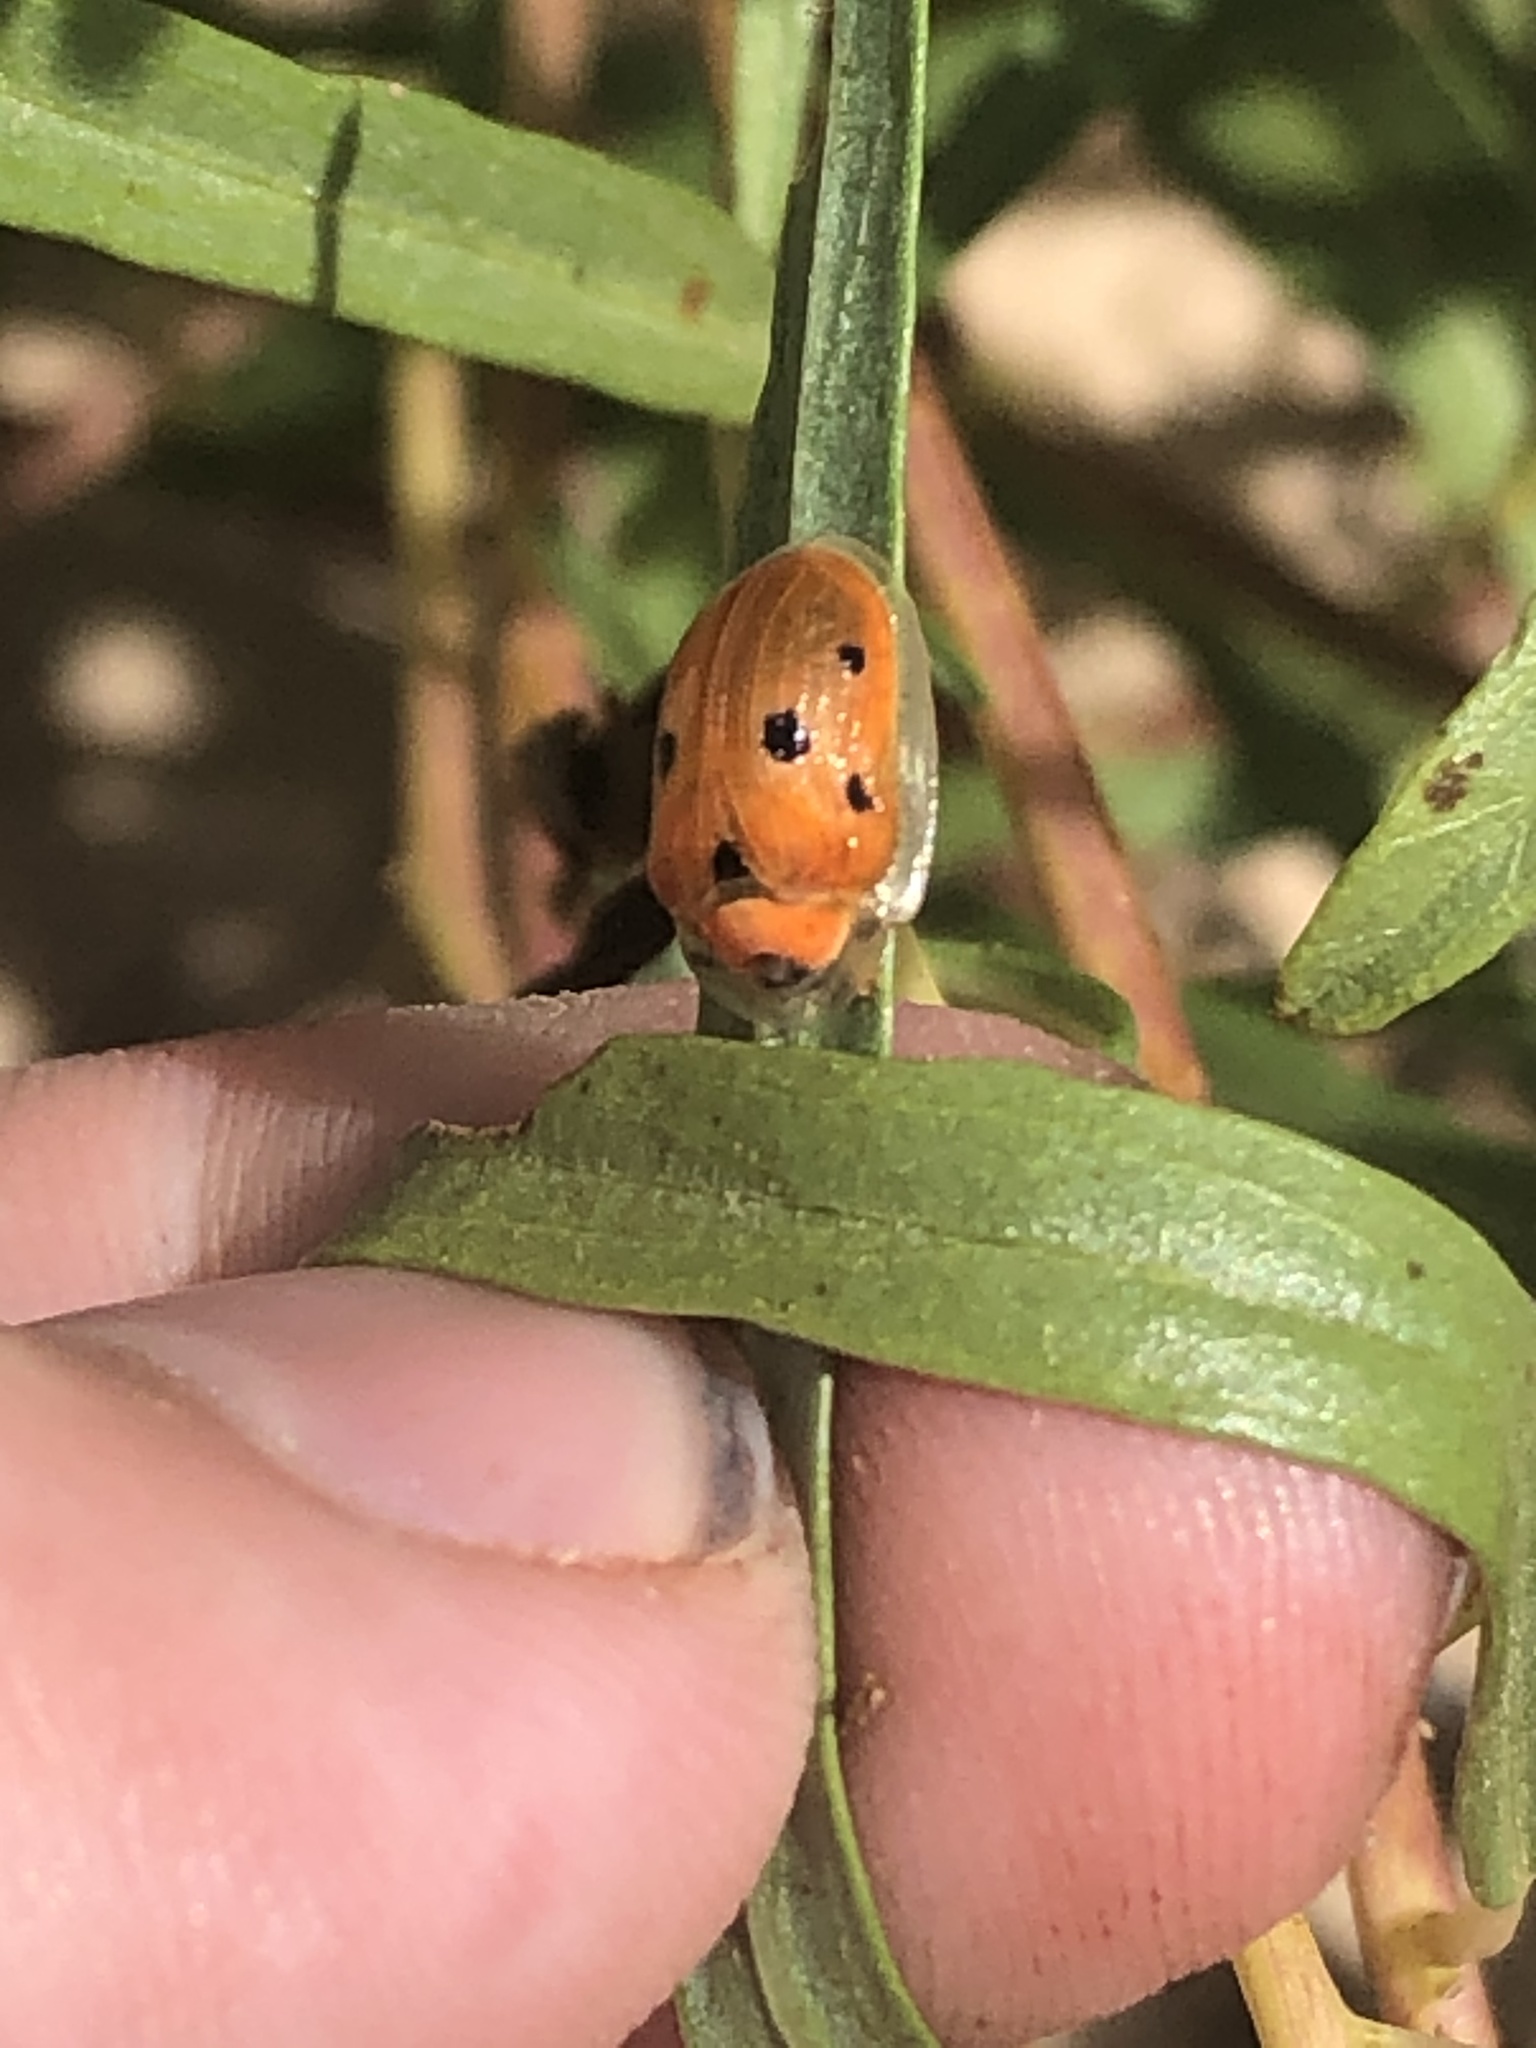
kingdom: Animalia
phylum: Arthropoda
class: Insecta
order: Coleoptera
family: Chrysomelidae
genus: Jonthonota
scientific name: Jonthonota nigripes
